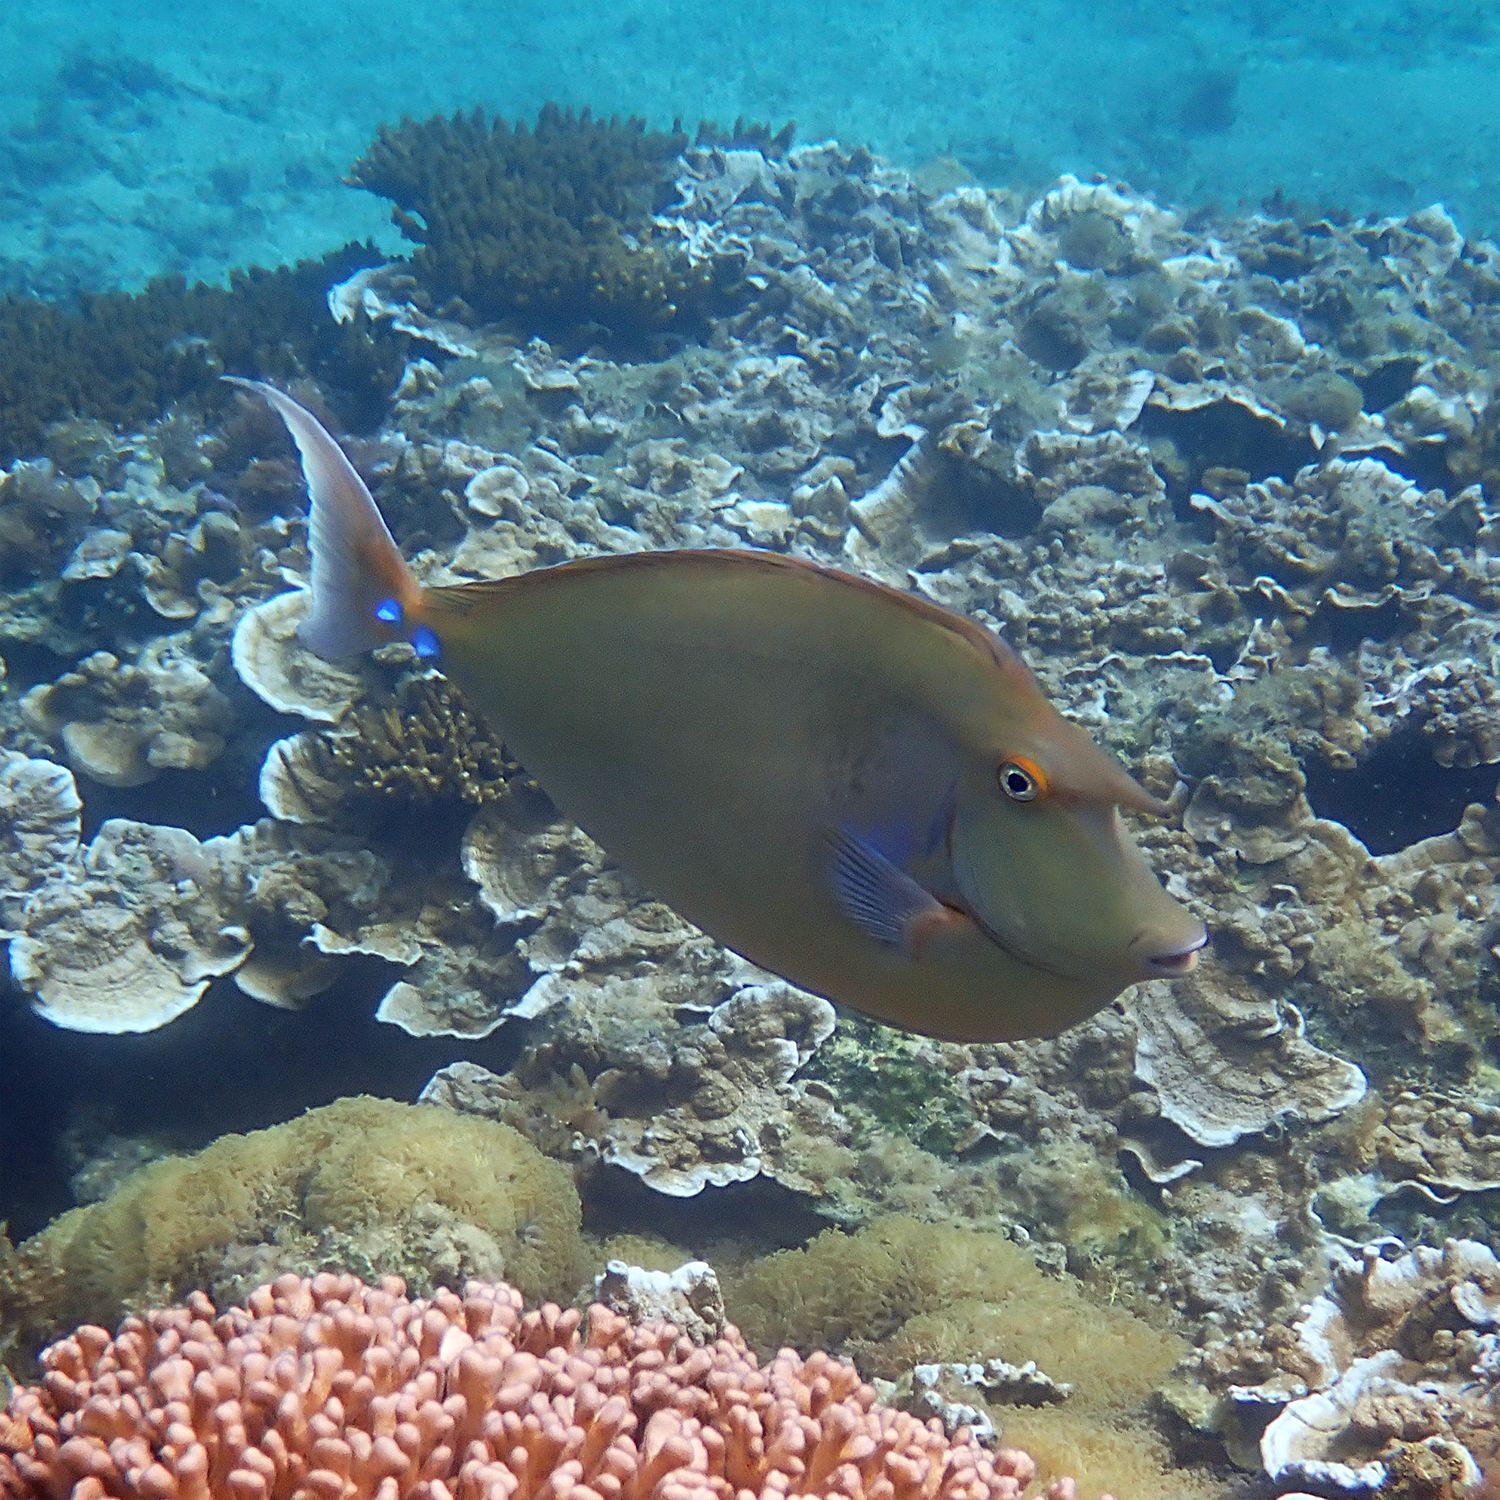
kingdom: Animalia
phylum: Chordata
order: Perciformes
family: Acanthuridae
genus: Naso
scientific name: Naso unicornis
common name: Bluespine unicornfish
